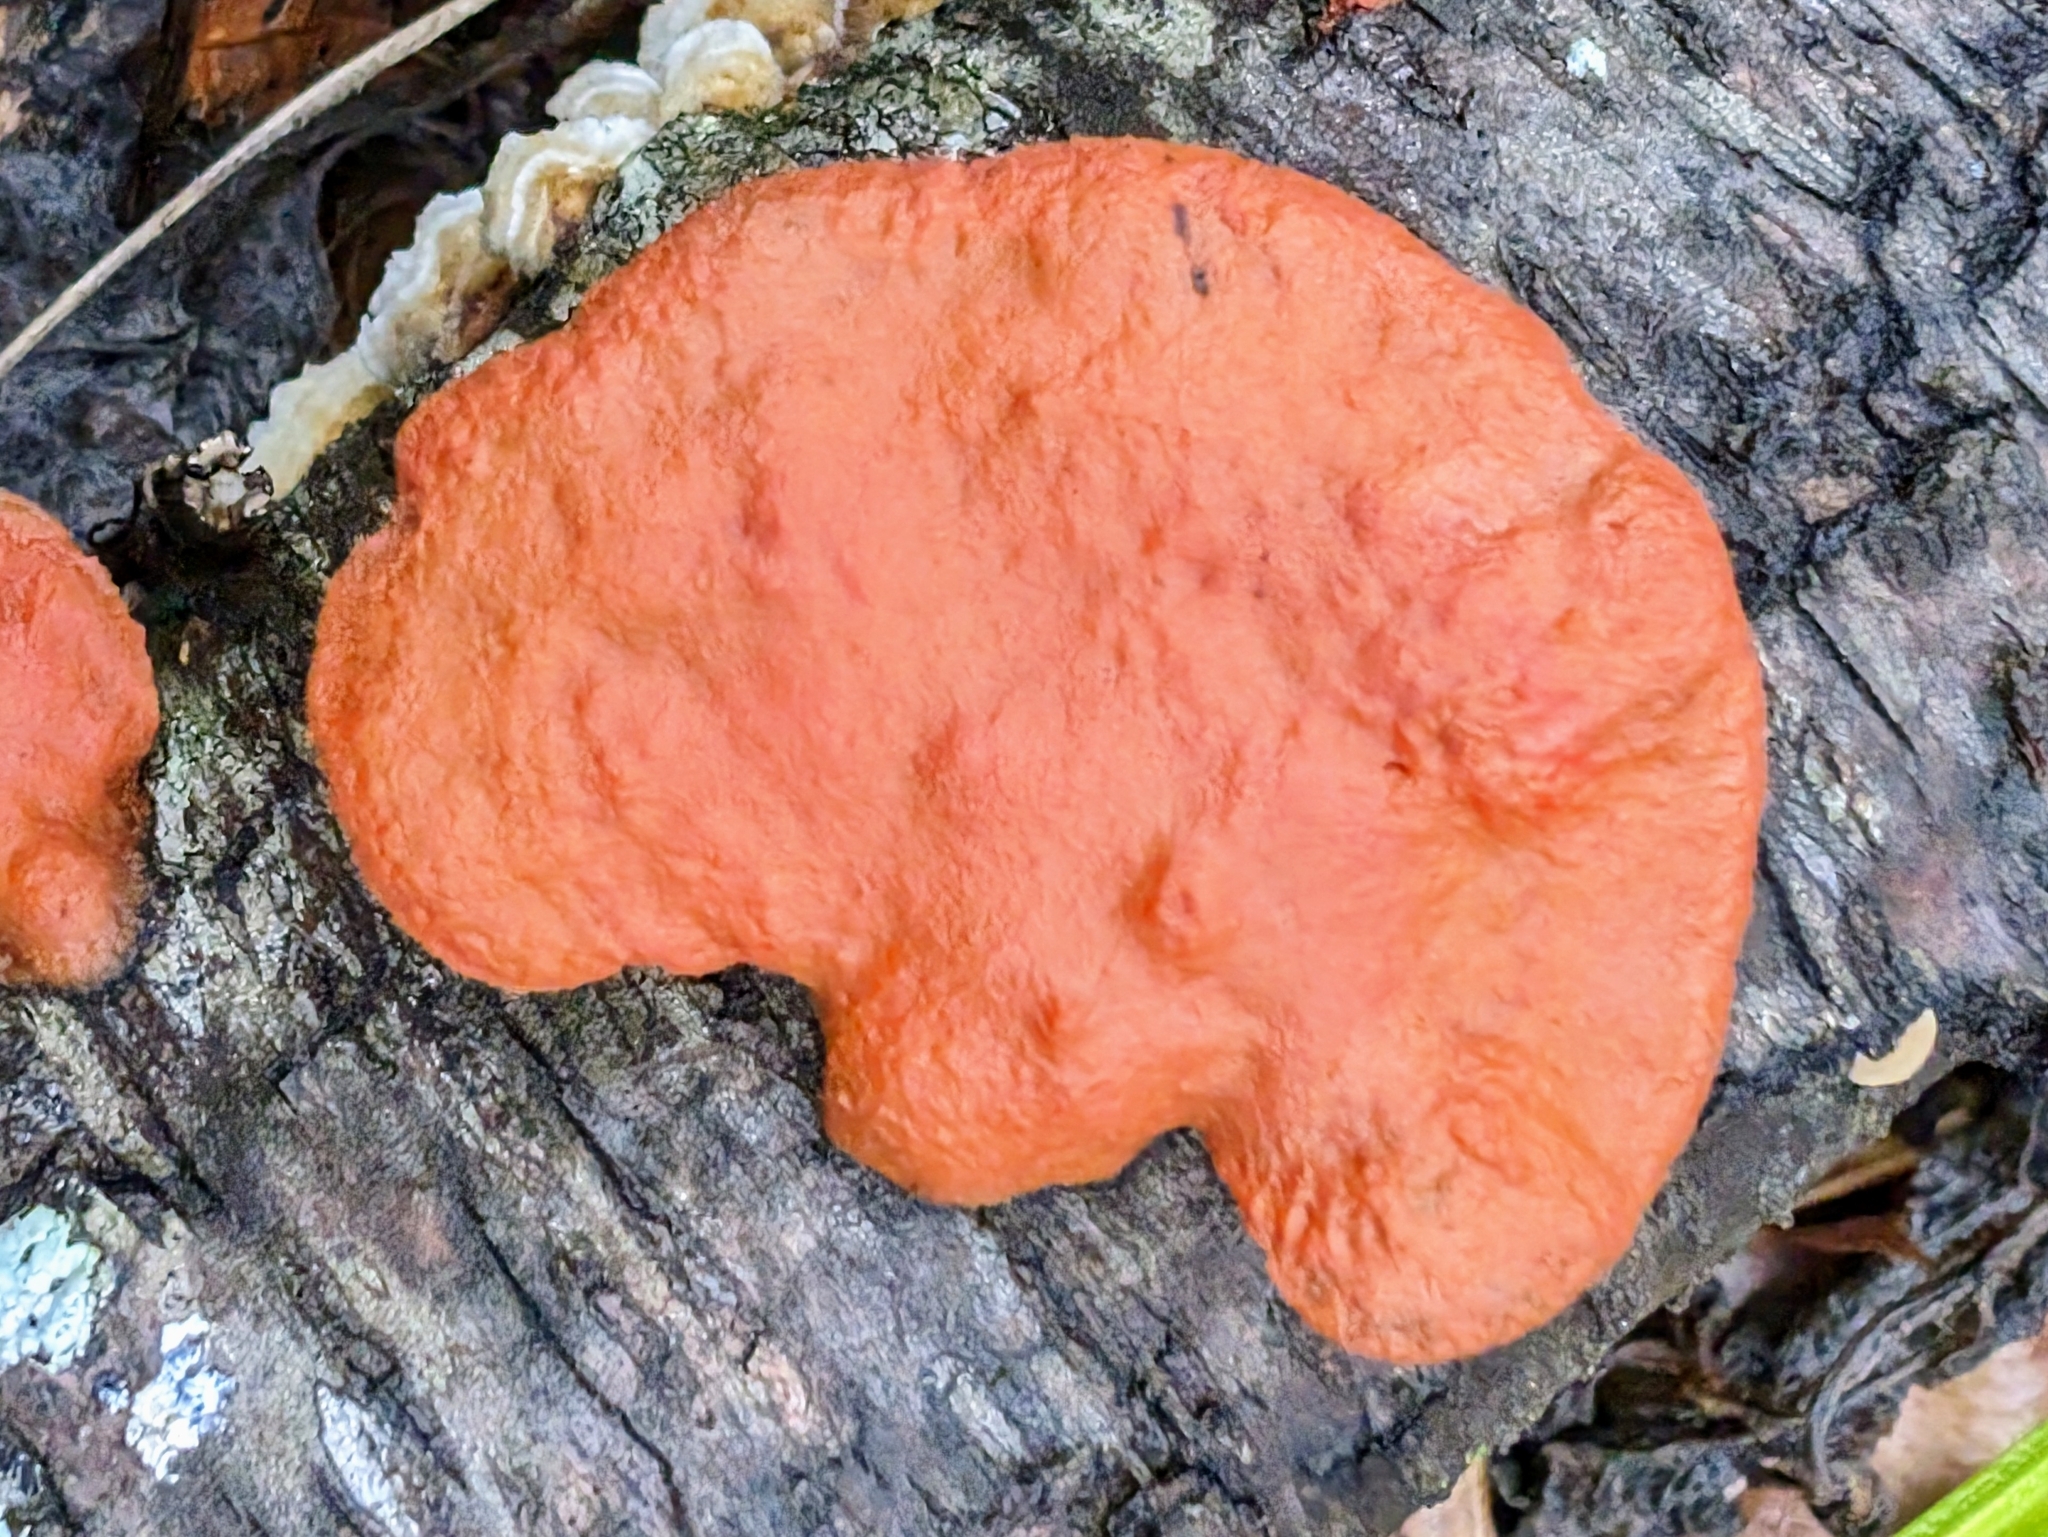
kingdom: Fungi
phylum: Basidiomycota
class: Agaricomycetes
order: Polyporales
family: Polyporaceae
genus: Trametes
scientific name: Trametes cinnabarina
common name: Northern cinnabar polypore
